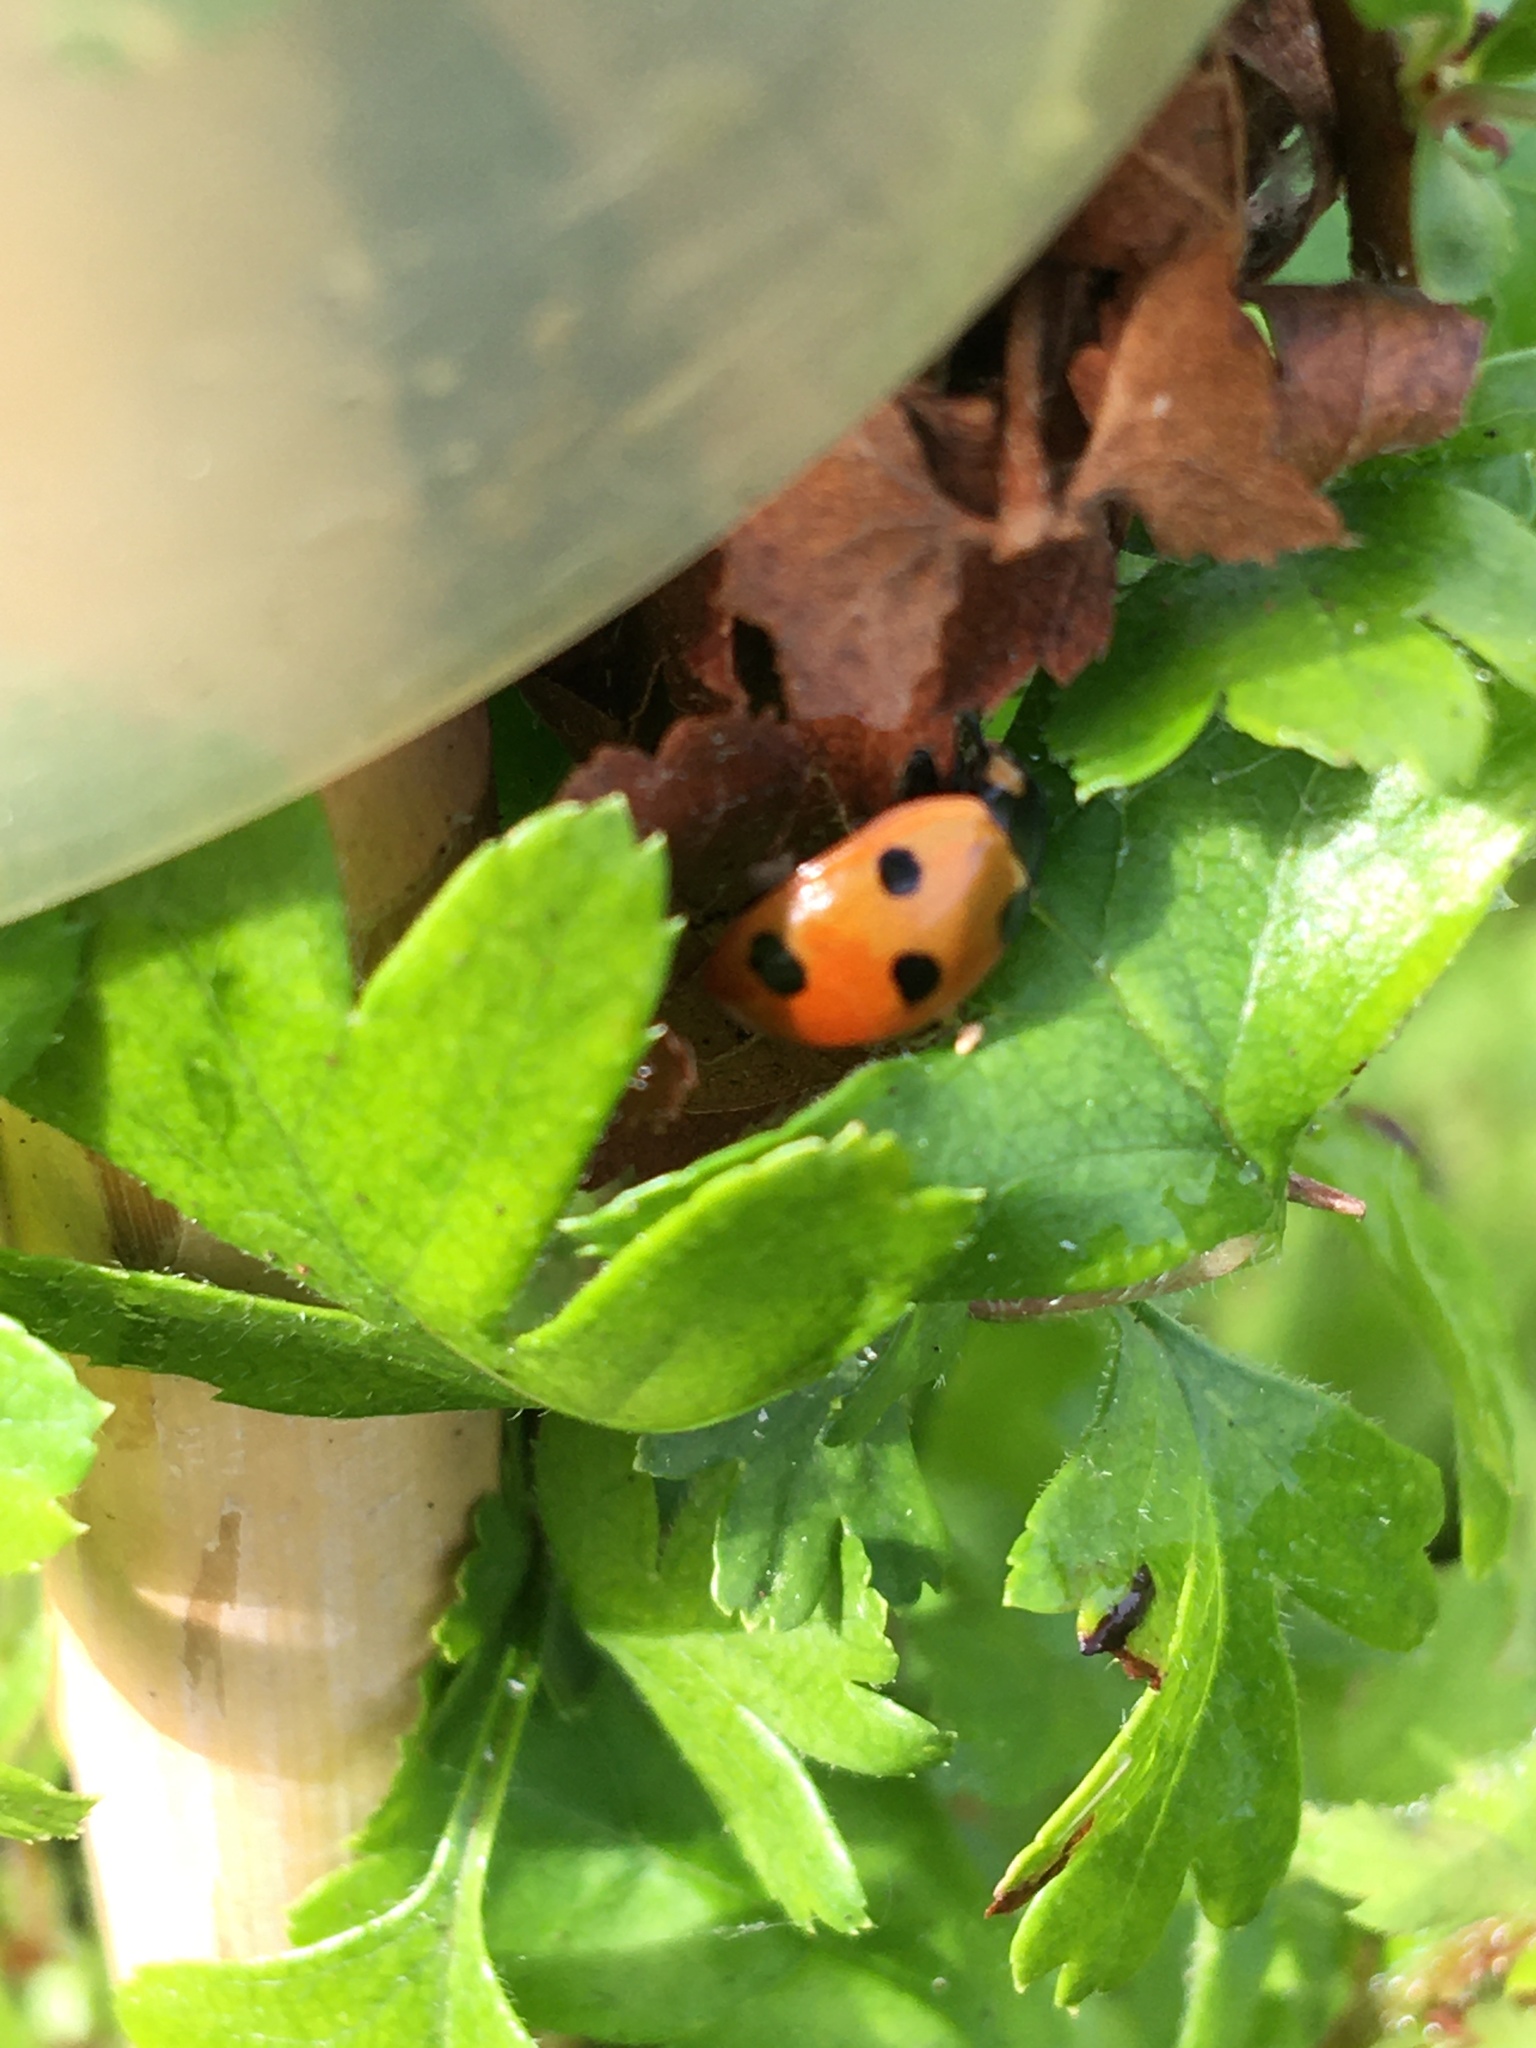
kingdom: Animalia
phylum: Arthropoda
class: Insecta
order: Coleoptera
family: Coccinellidae
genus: Coccinella
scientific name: Coccinella septempunctata
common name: Sevenspotted lady beetle
